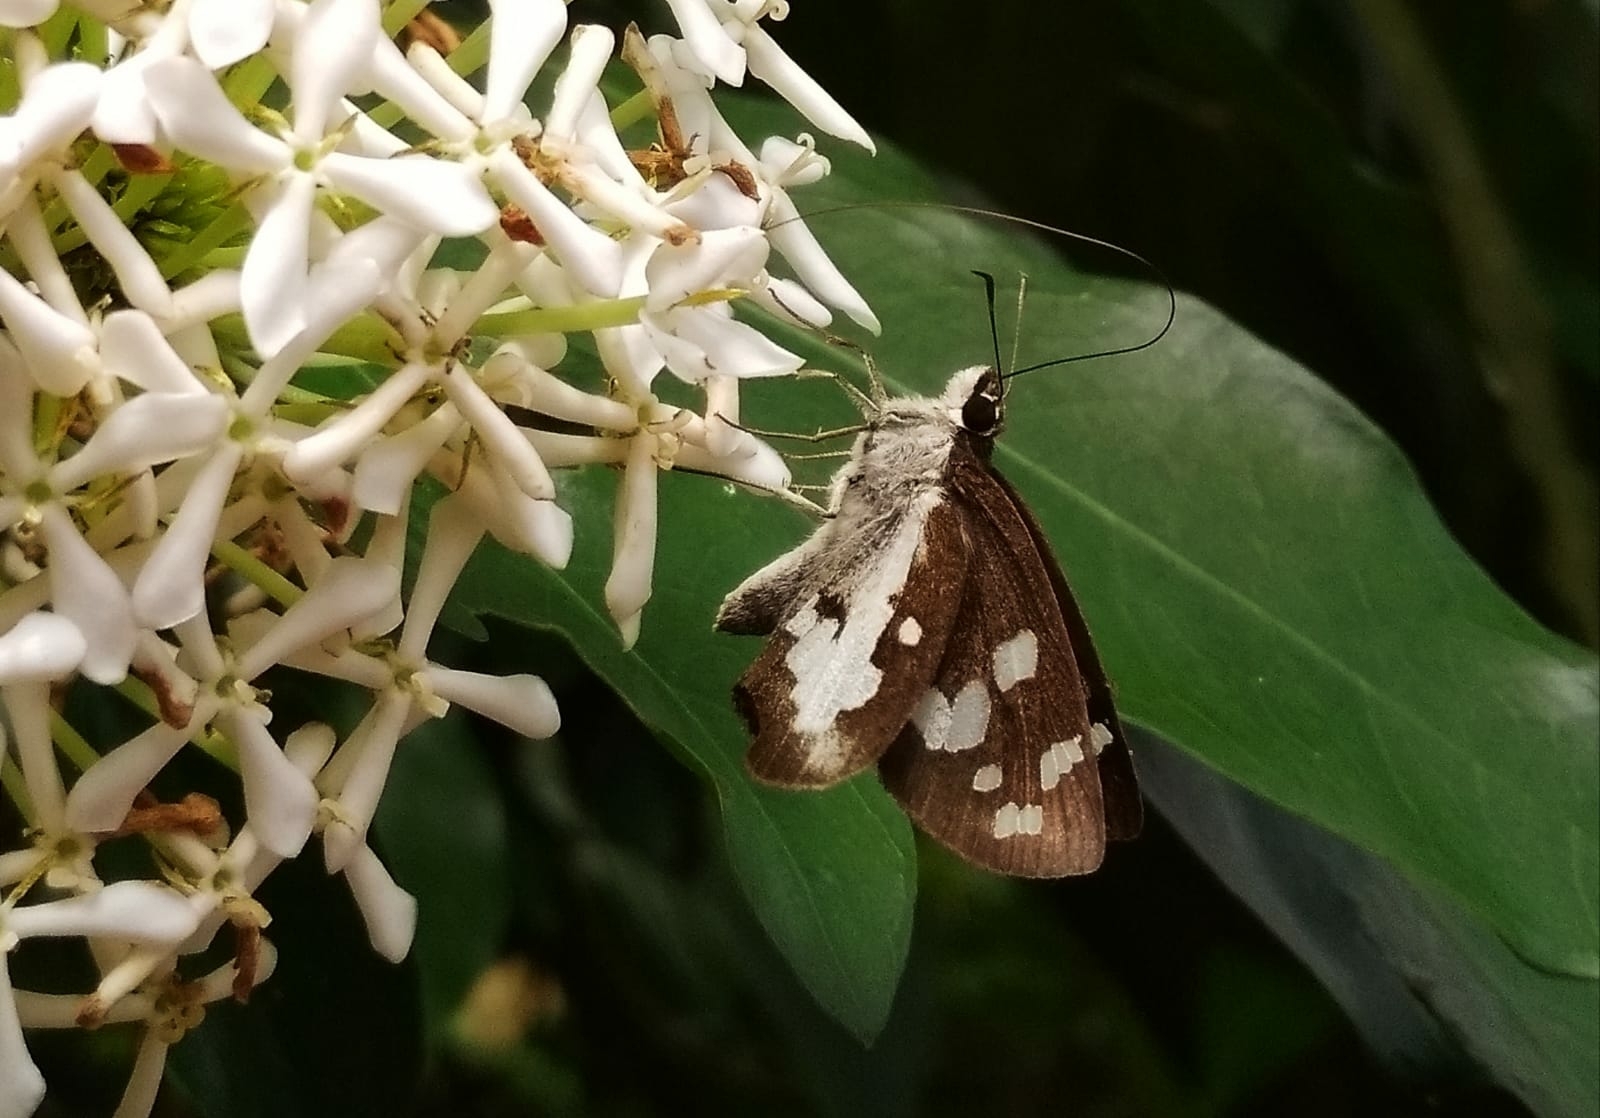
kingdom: Animalia
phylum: Arthropoda
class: Insecta
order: Lepidoptera
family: Hesperiidae
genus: Udaspes
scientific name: Udaspes folus
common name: Grass demon
